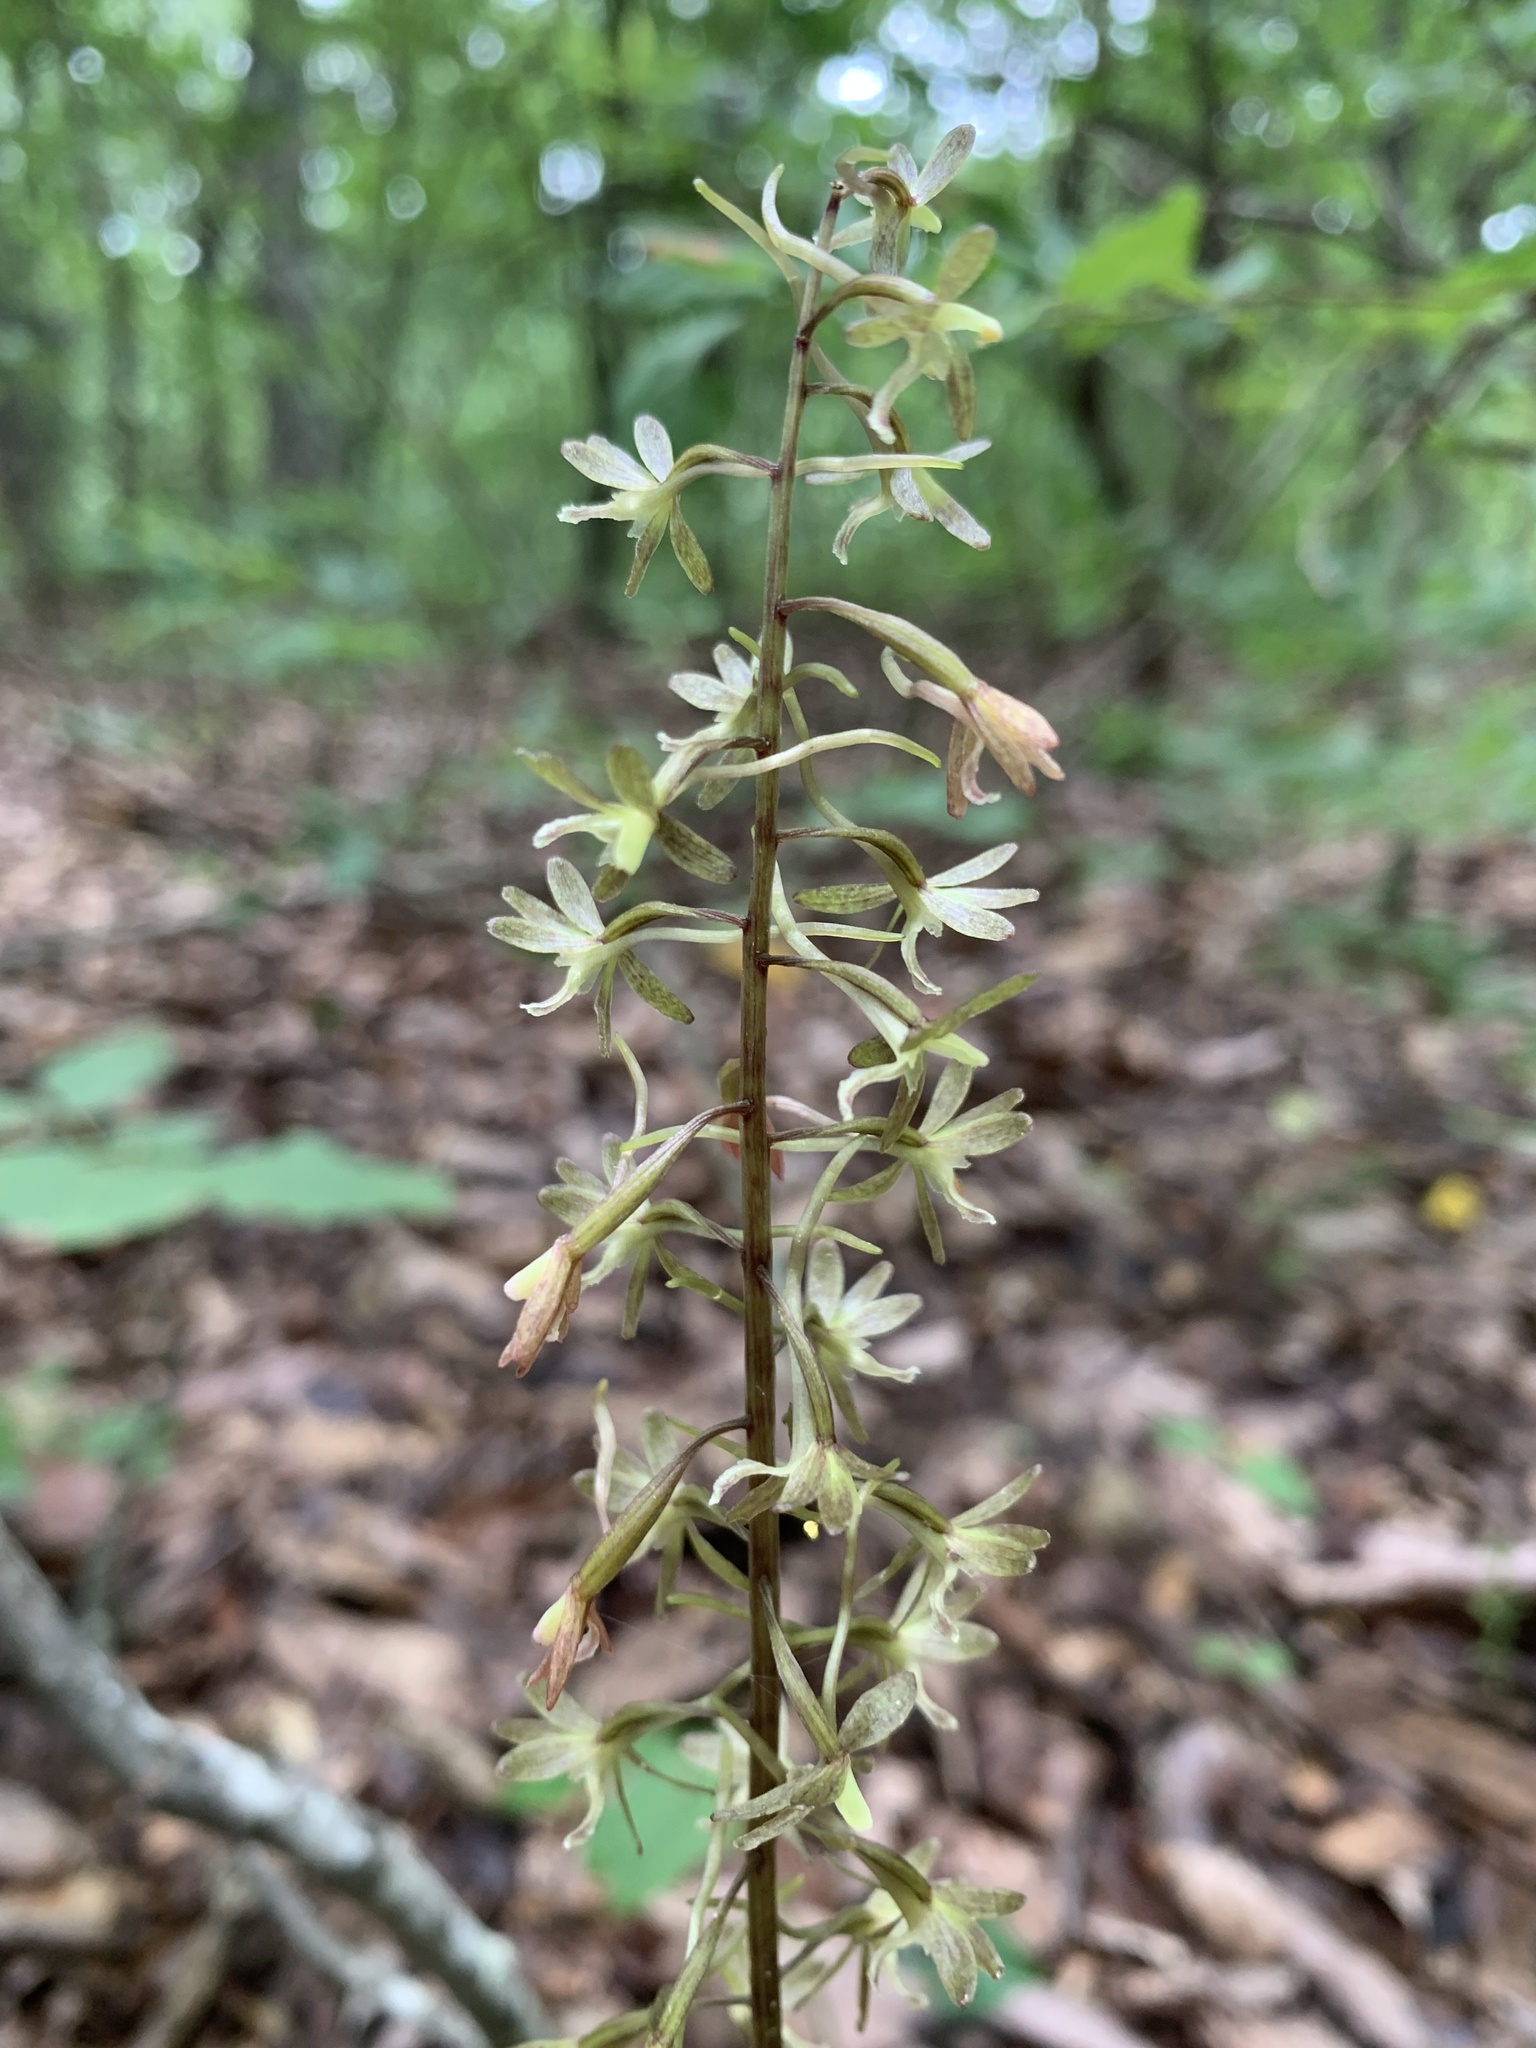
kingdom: Plantae
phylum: Tracheophyta
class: Liliopsida
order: Asparagales
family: Orchidaceae
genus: Tipularia
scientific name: Tipularia discolor
